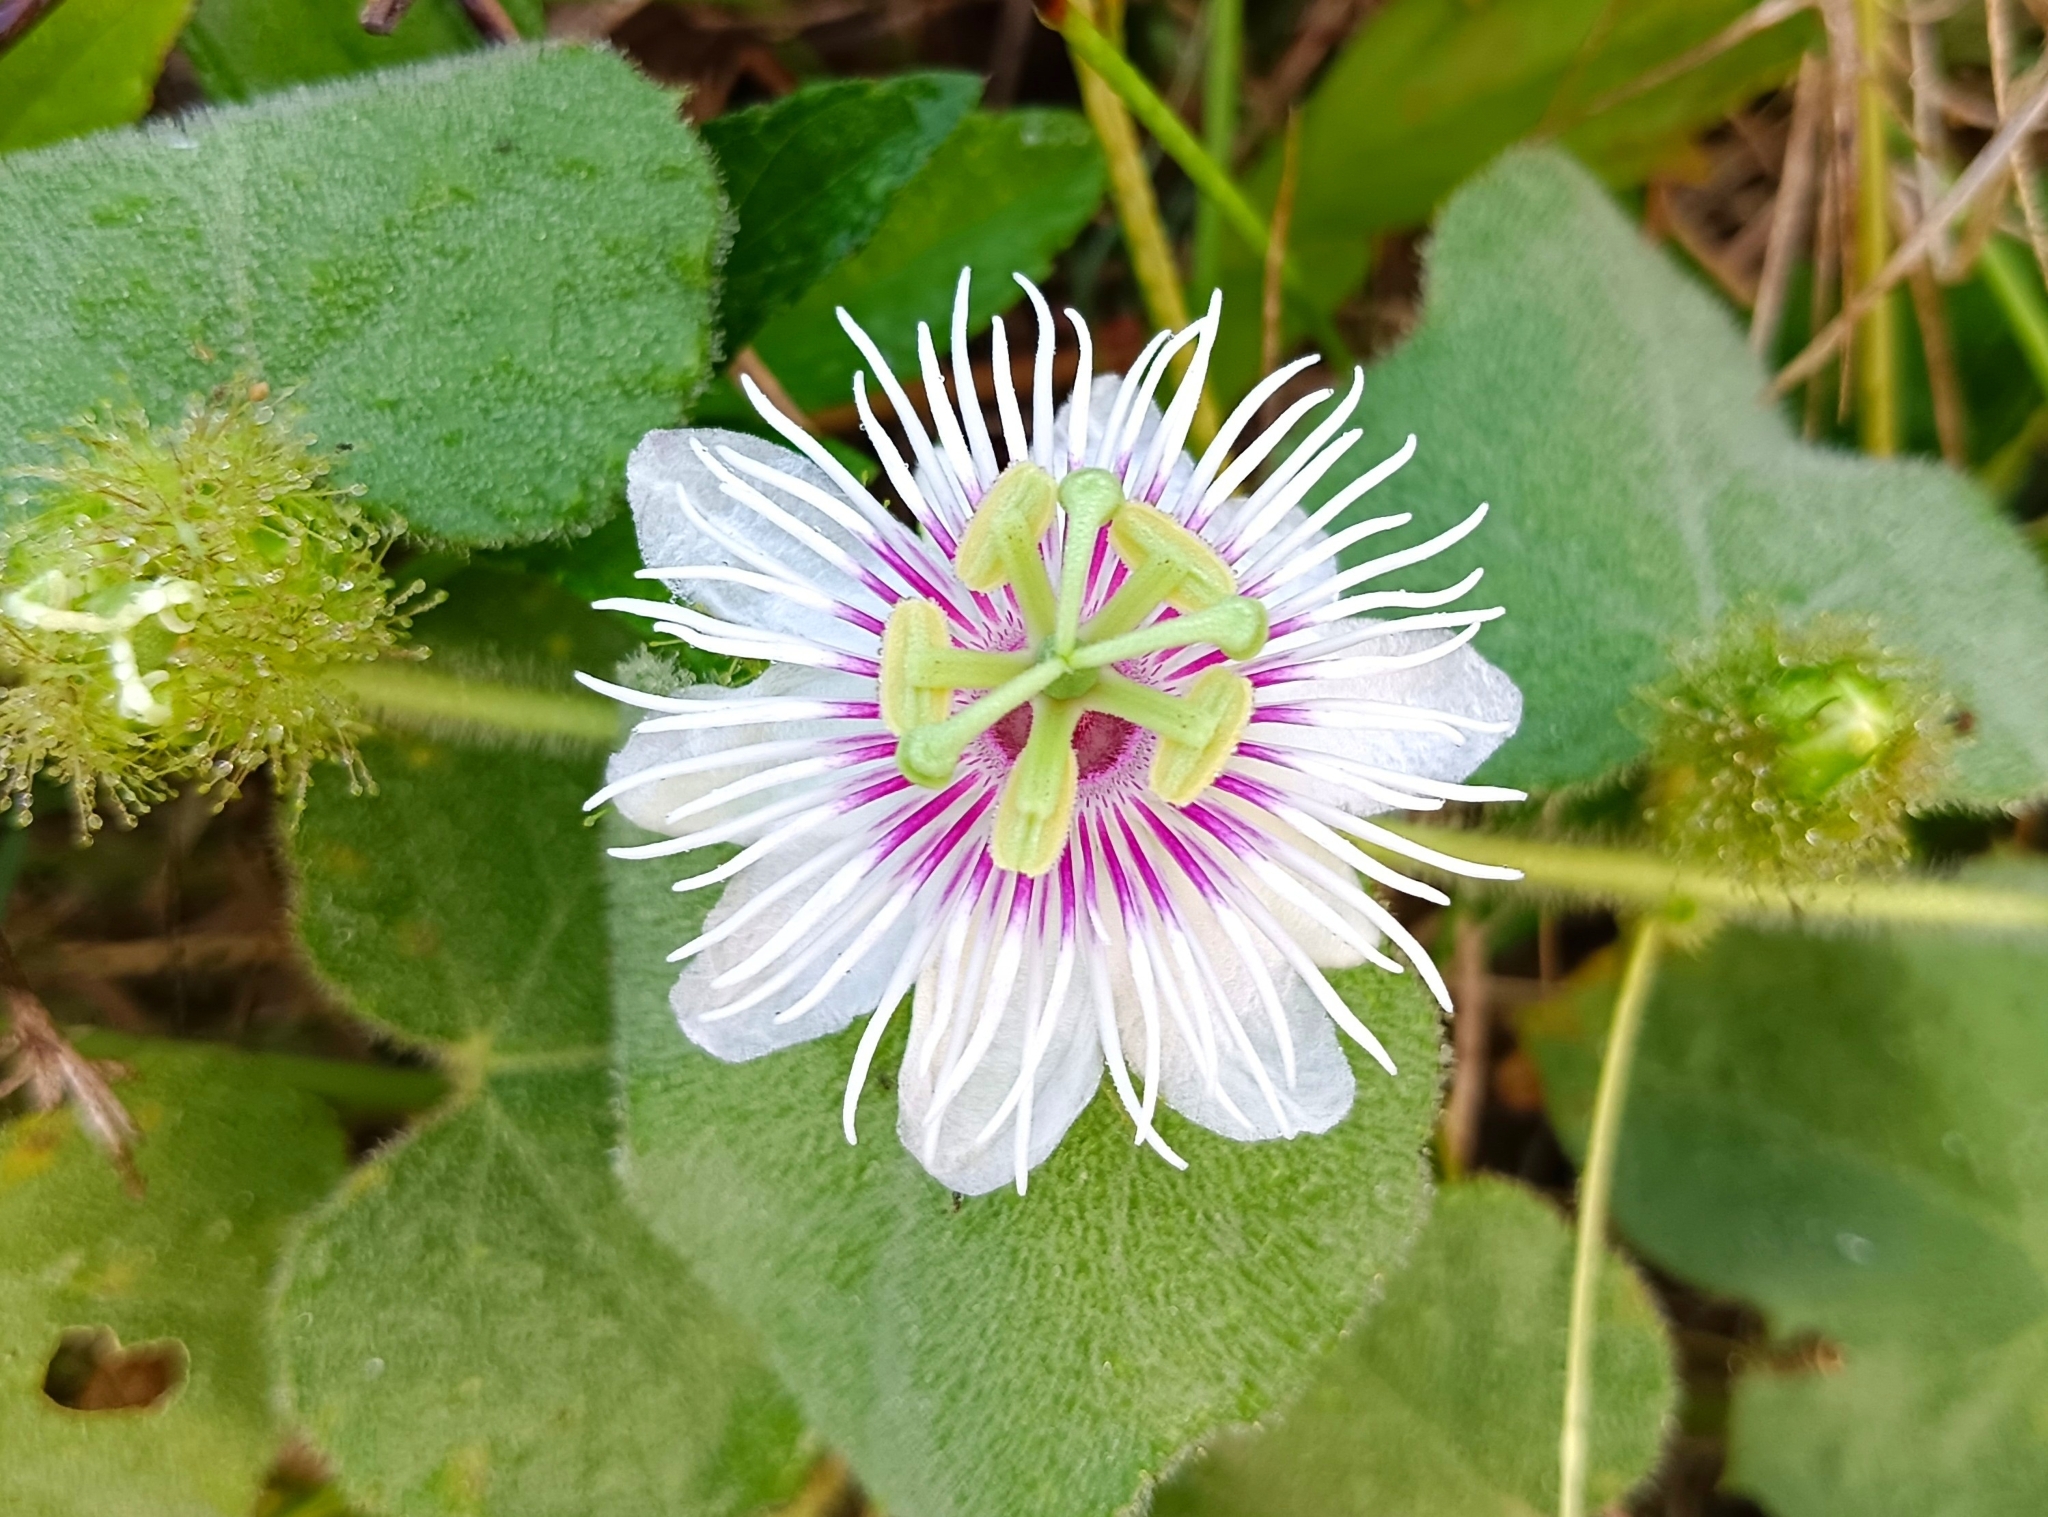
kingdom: Plantae
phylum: Tracheophyta
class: Magnoliopsida
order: Malpighiales
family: Passifloraceae
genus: Passiflora
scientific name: Passiflora vesicaria
